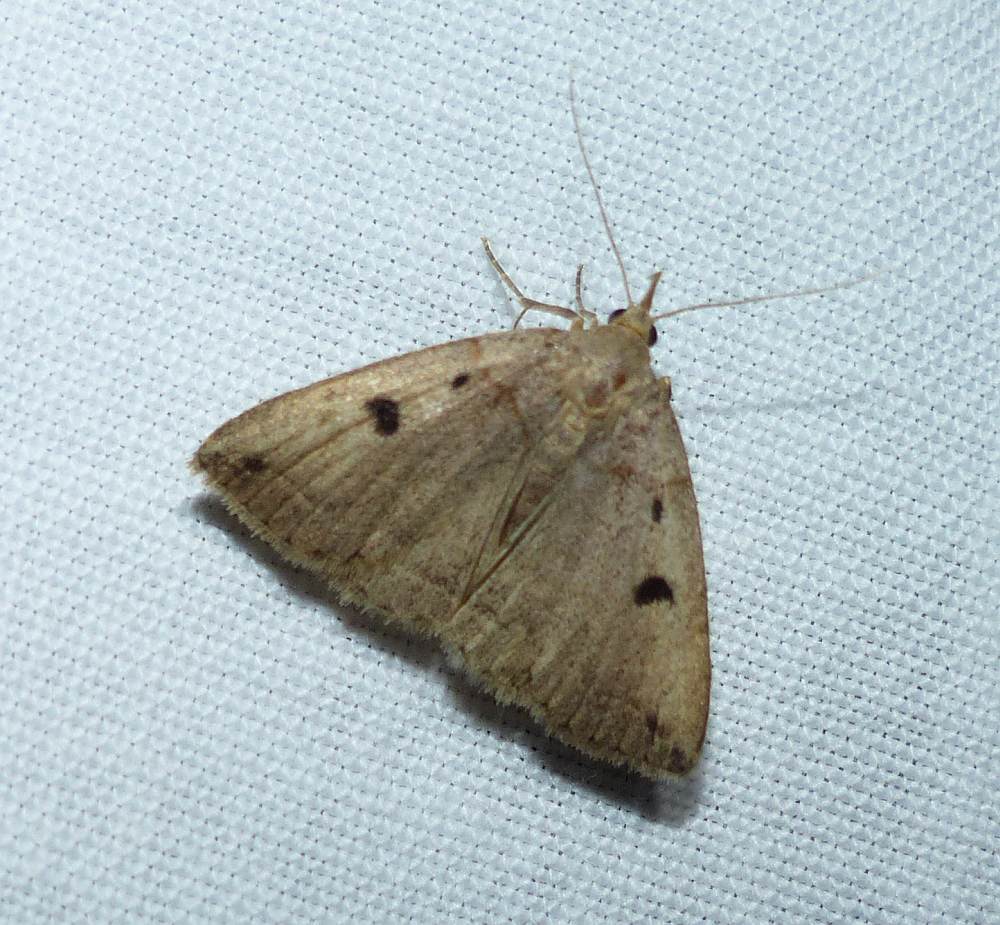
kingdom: Animalia
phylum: Arthropoda
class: Insecta
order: Lepidoptera
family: Erebidae
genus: Zanclognatha
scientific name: Zanclognatha laevigata
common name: Variable fan-foot
